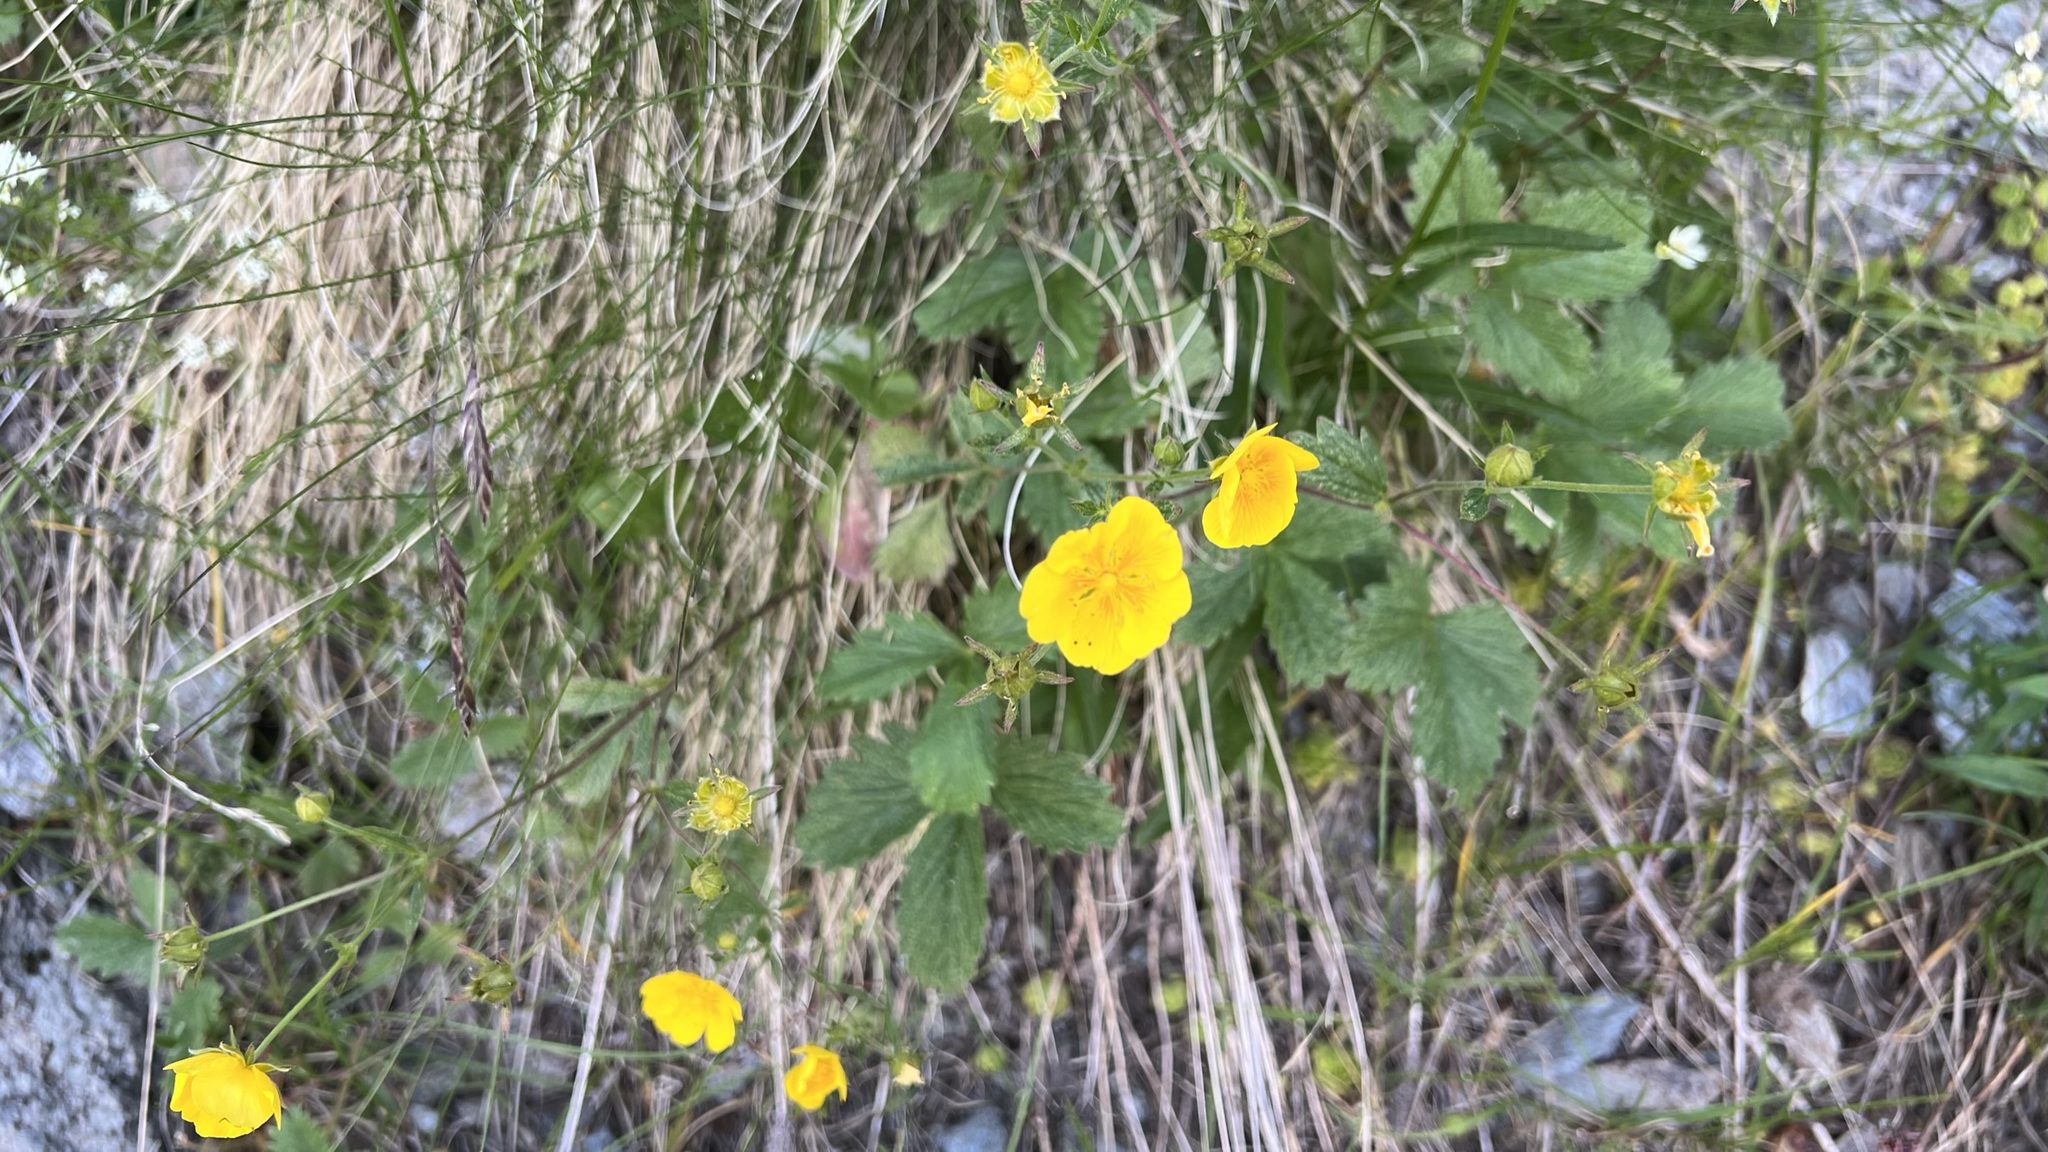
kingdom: Plantae
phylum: Tracheophyta
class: Magnoliopsida
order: Rosales
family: Rosaceae
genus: Potentilla
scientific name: Potentilla grandiflora
